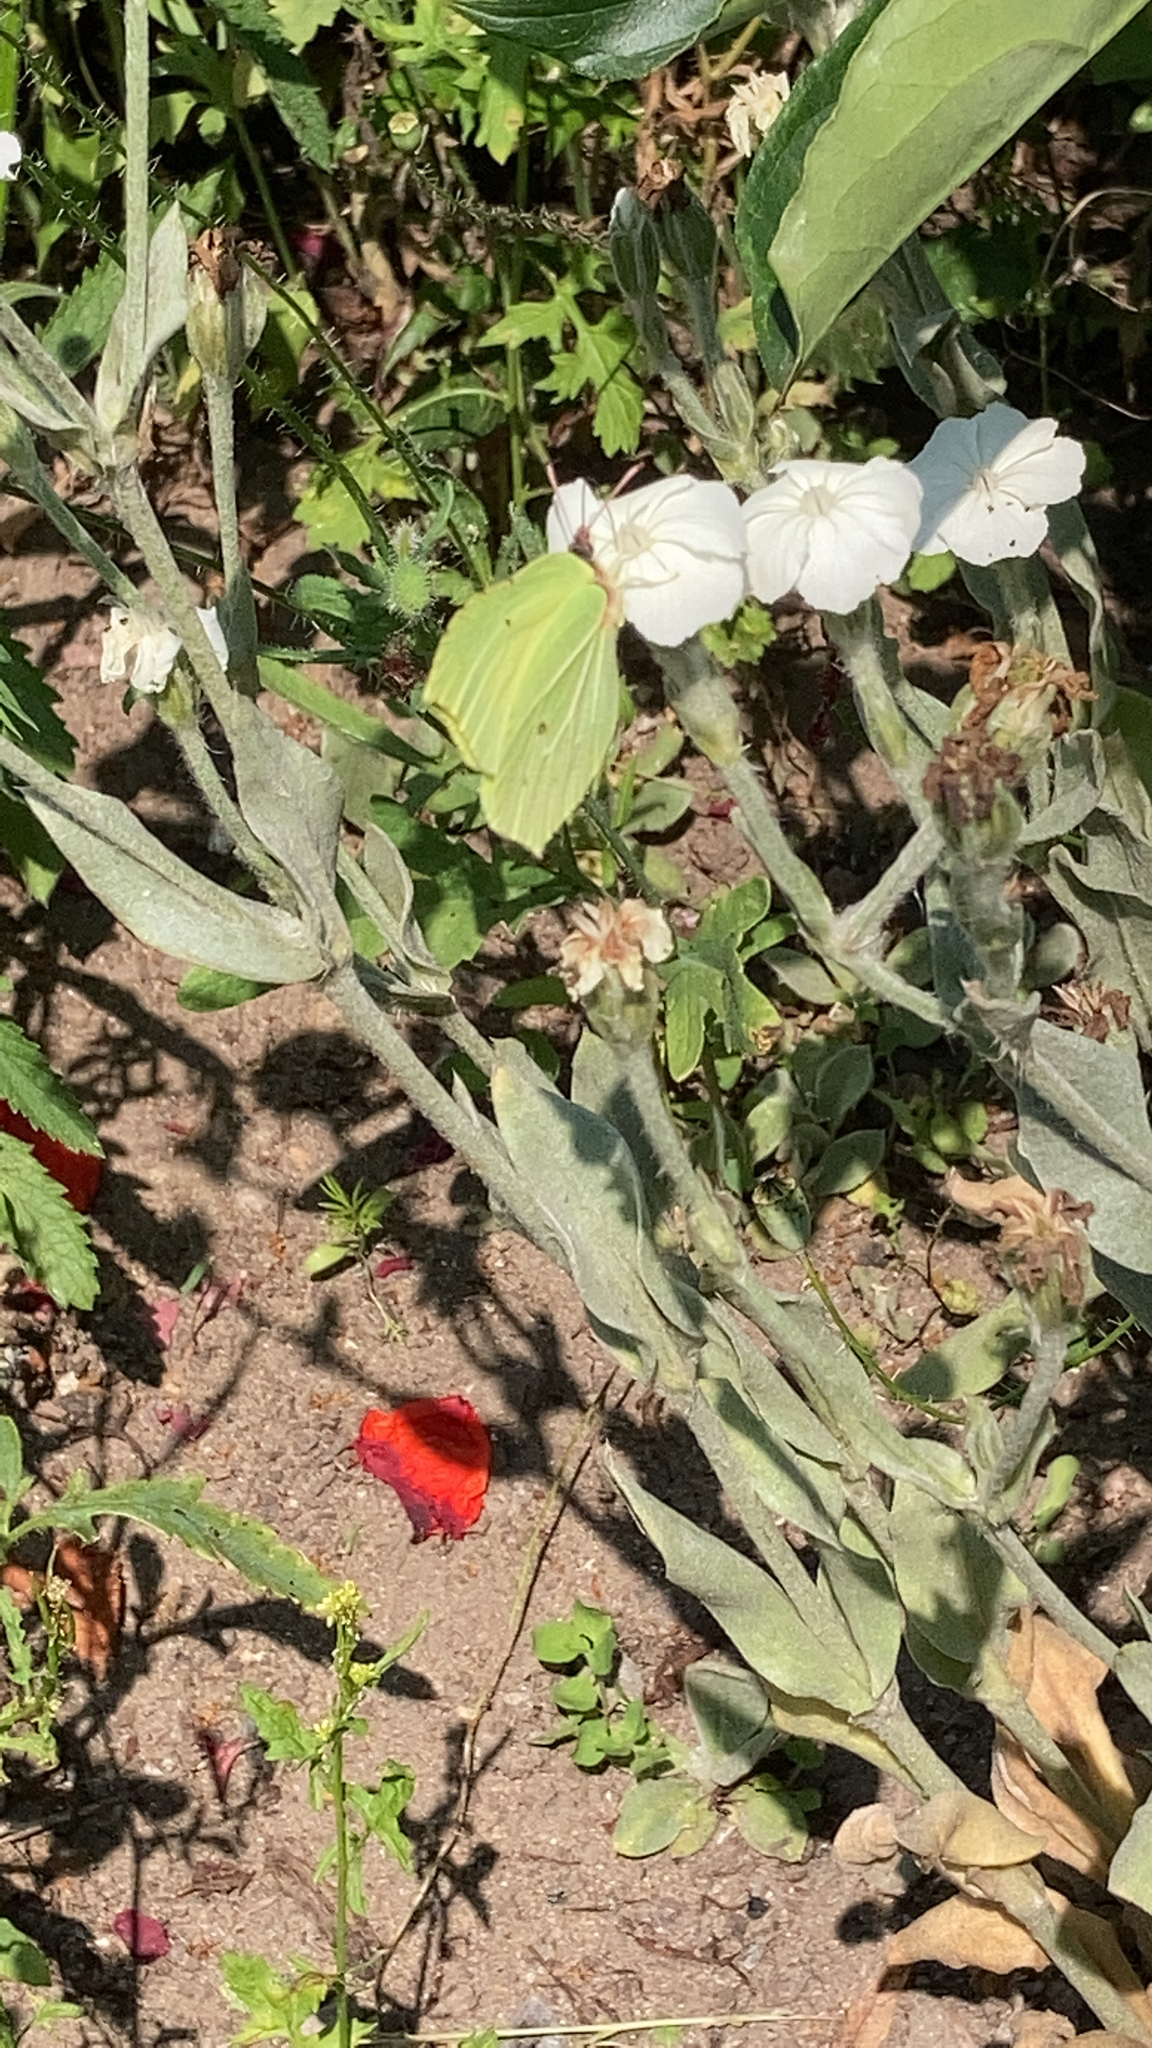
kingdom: Animalia
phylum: Arthropoda
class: Insecta
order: Lepidoptera
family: Pieridae
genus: Gonepteryx
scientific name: Gonepteryx rhamni
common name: Brimstone
